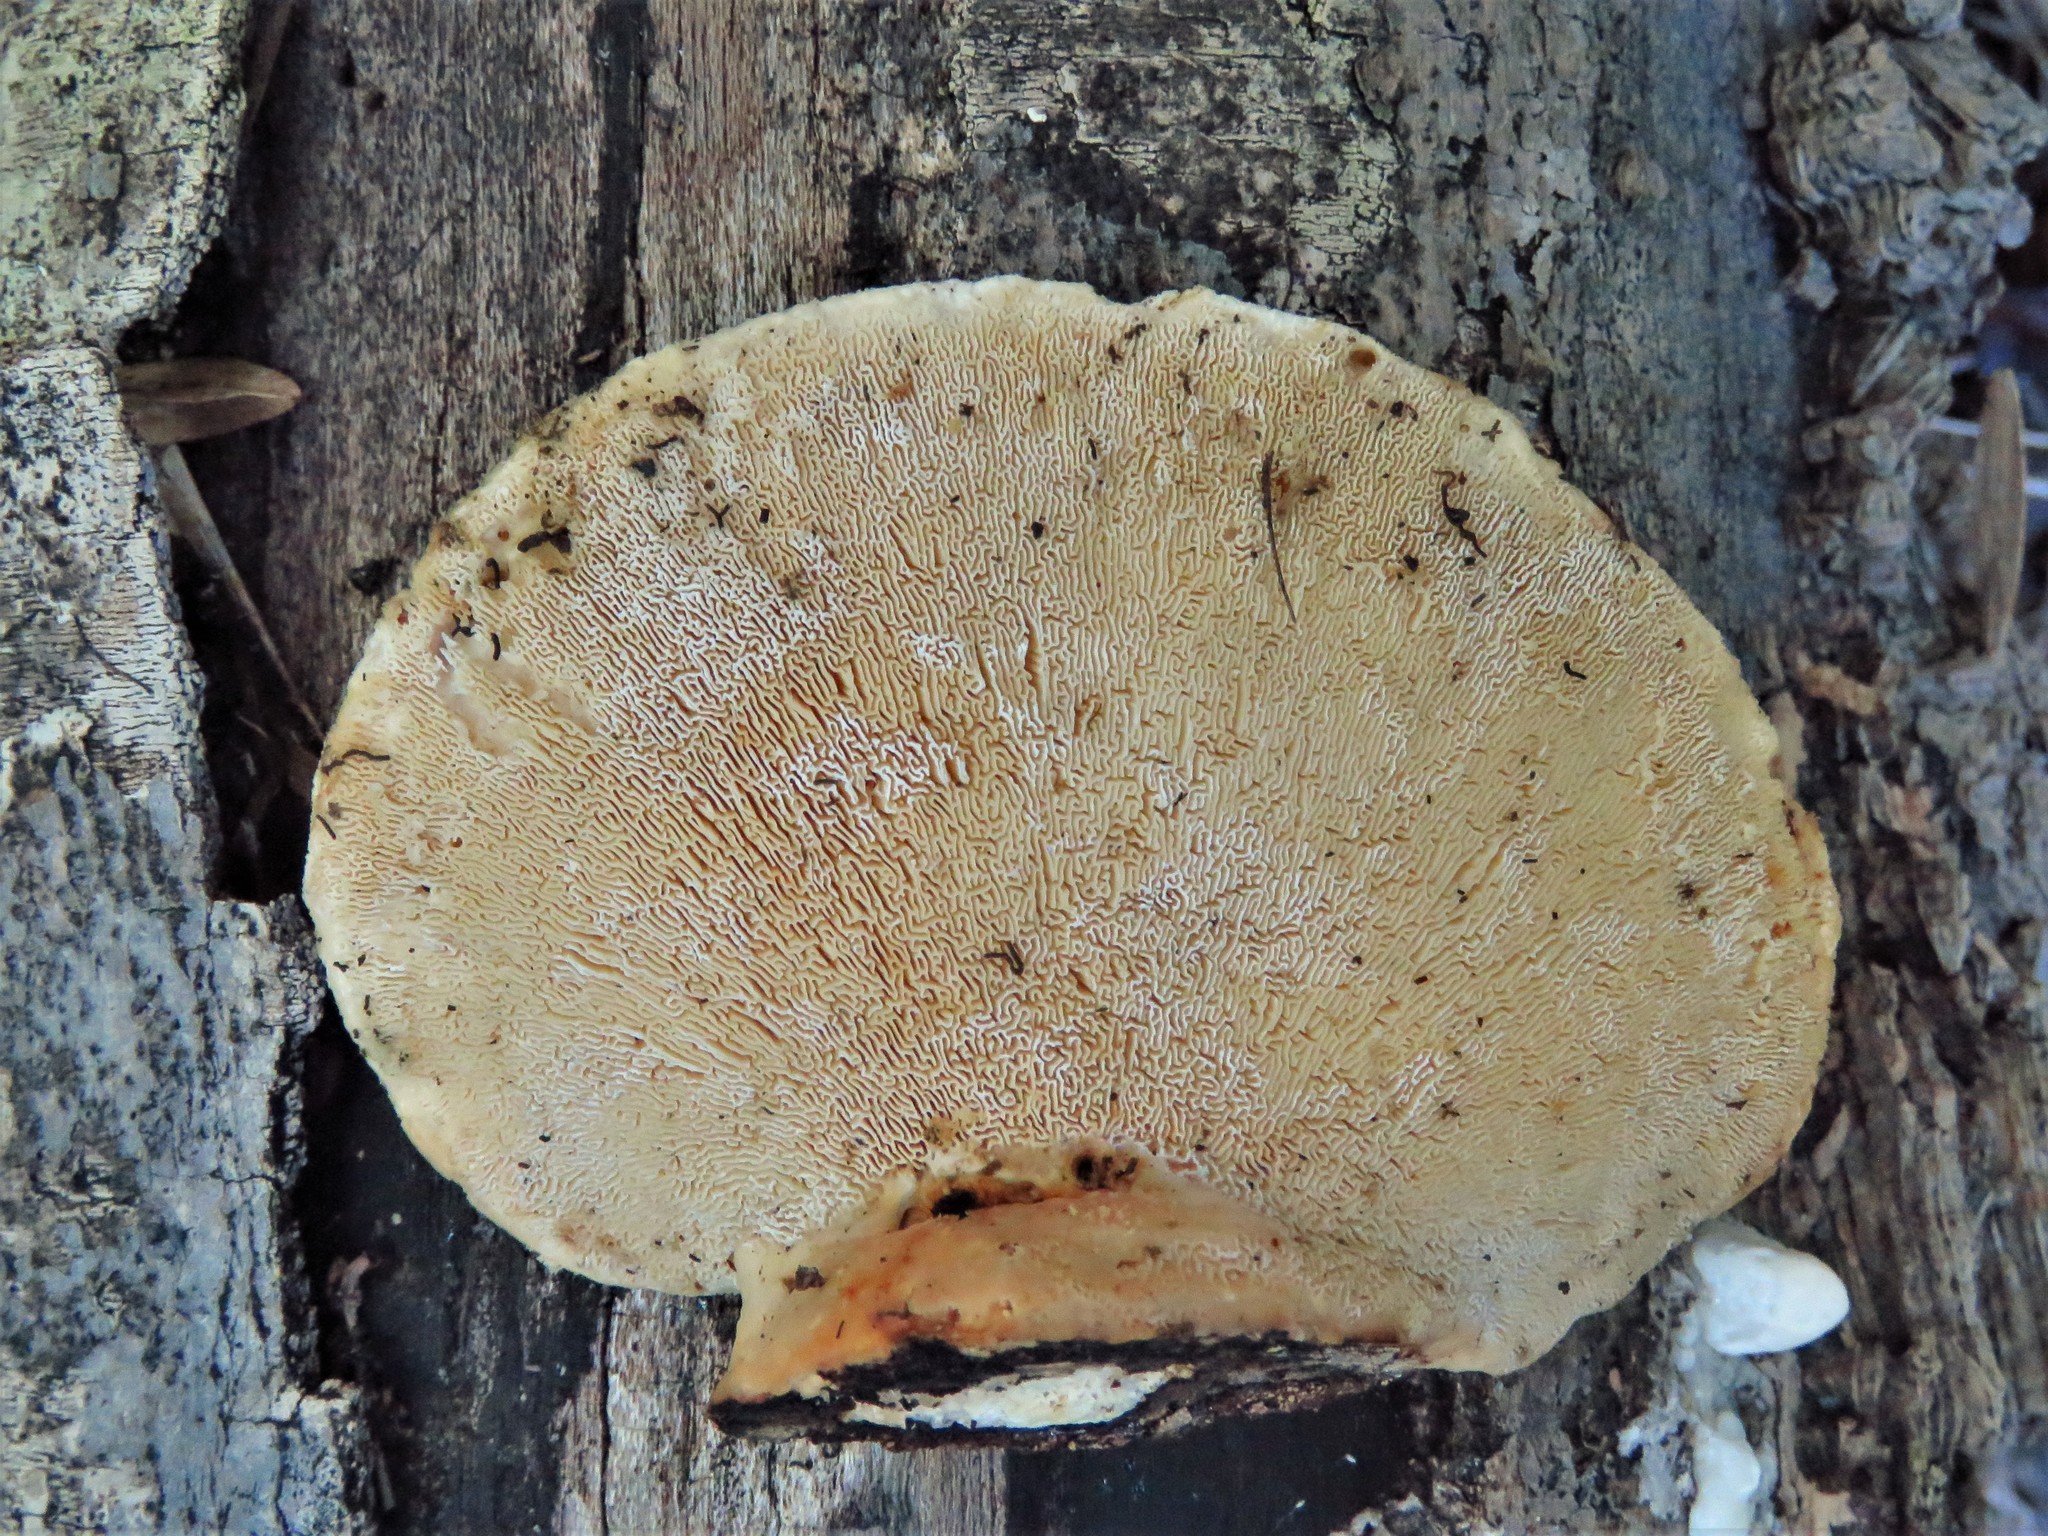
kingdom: Fungi
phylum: Basidiomycota
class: Agaricomycetes
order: Polyporales
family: Polyporaceae
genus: Trametes
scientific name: Trametes
